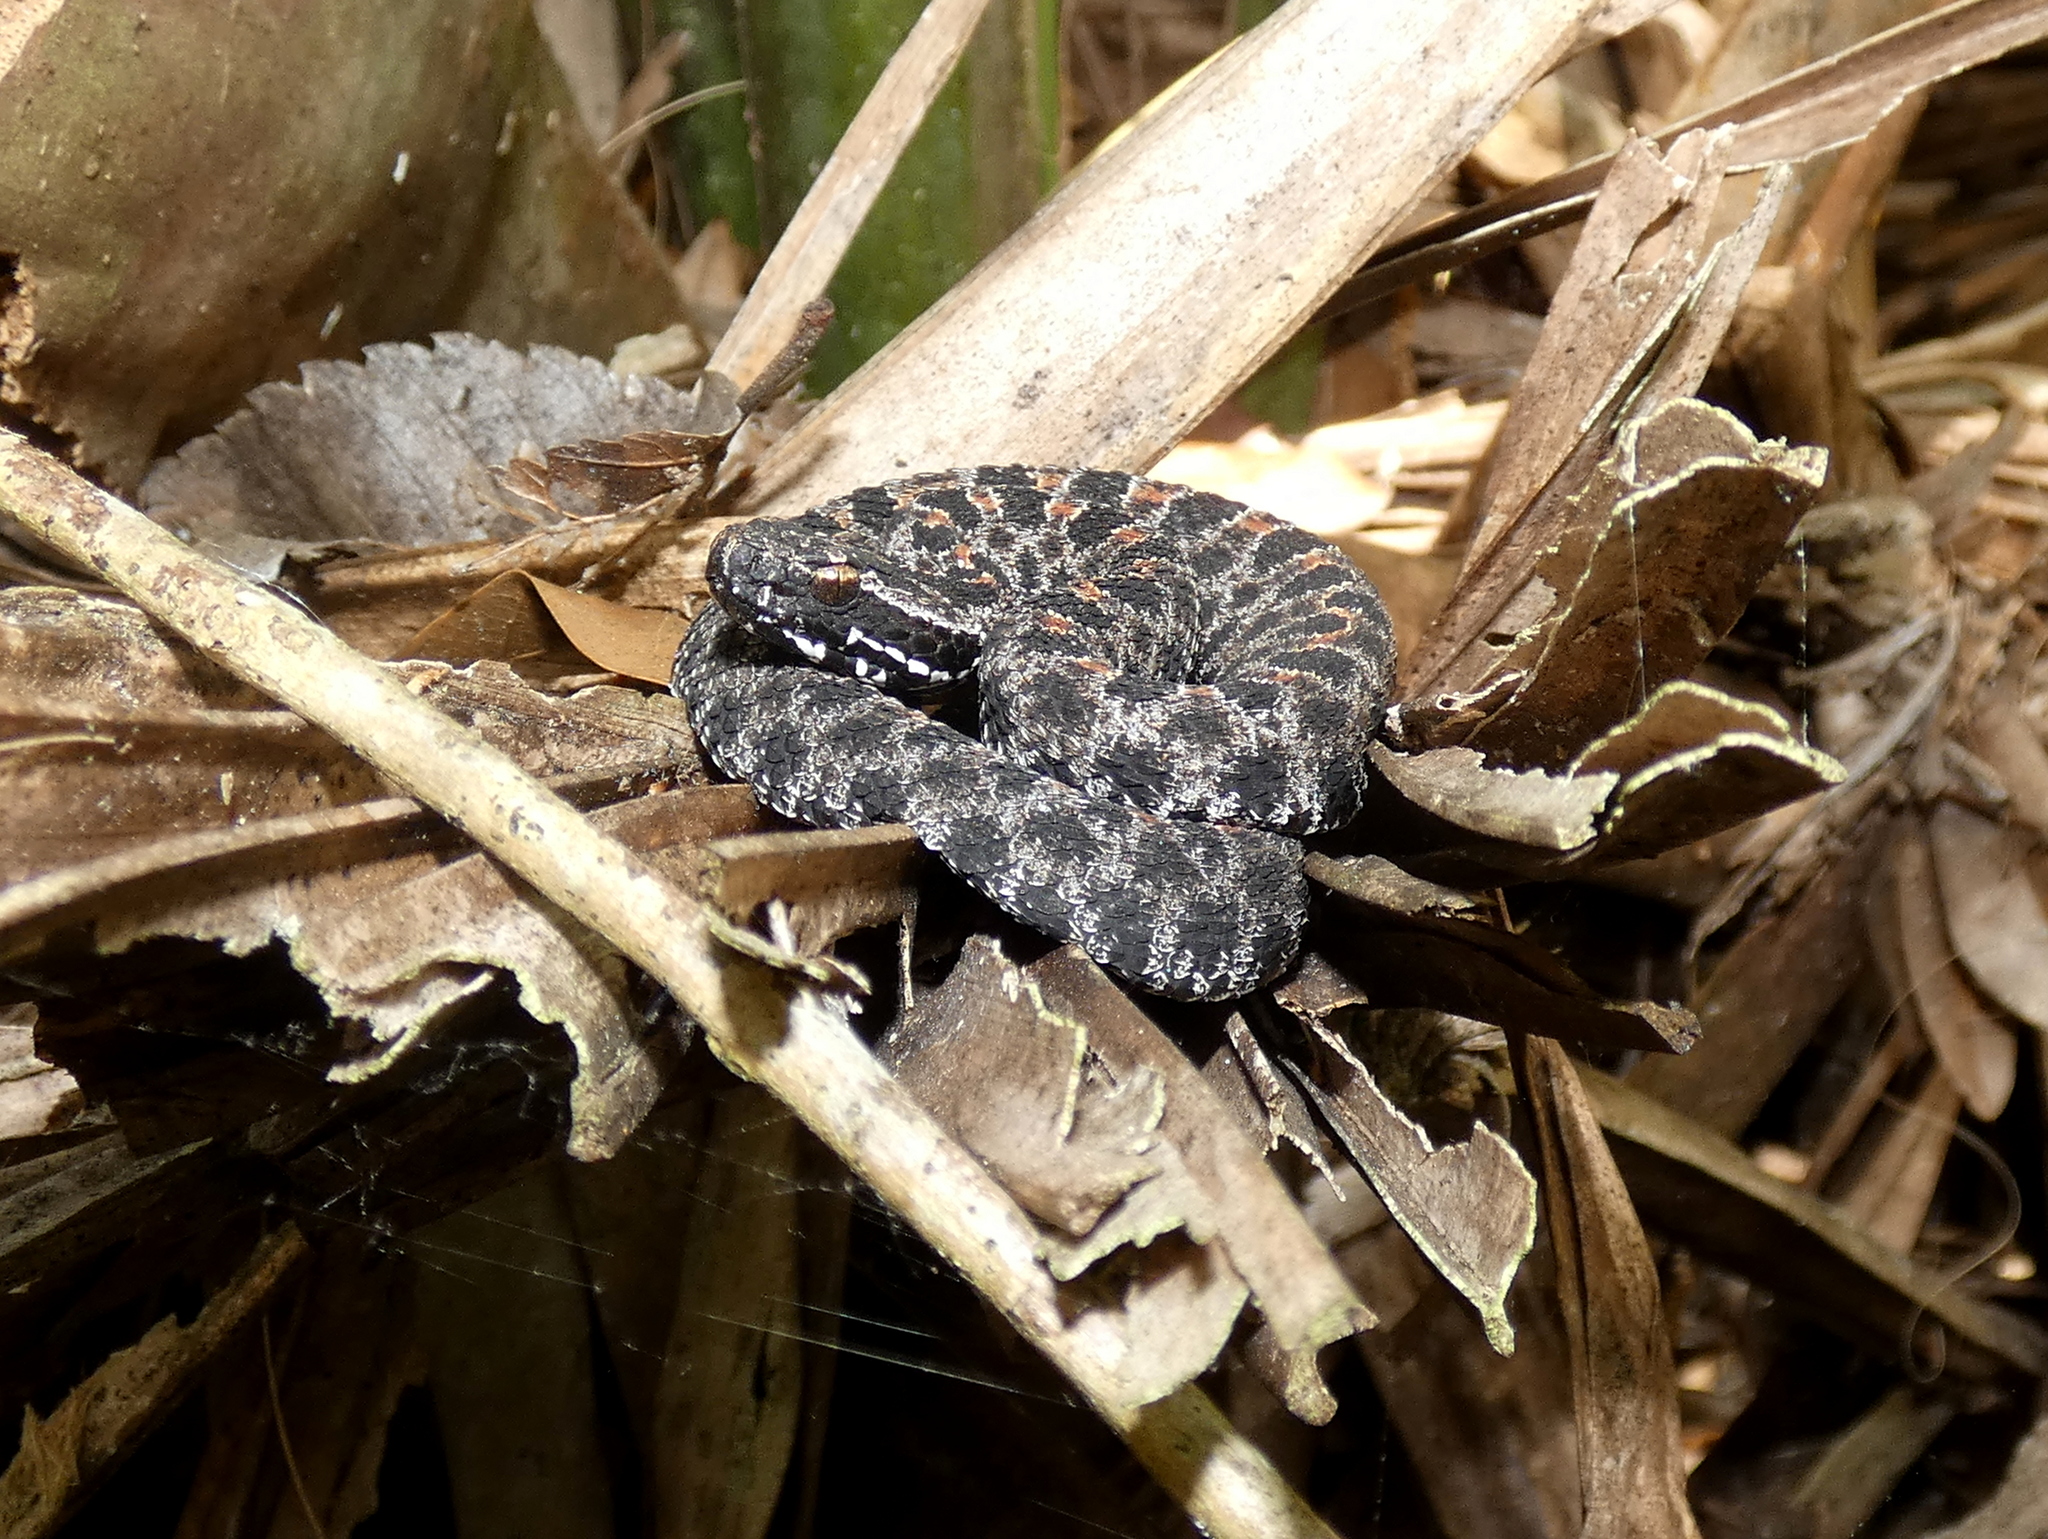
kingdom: Animalia
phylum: Chordata
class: Squamata
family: Viperidae
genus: Sistrurus
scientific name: Sistrurus miliarius
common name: Pygmy rattlesnake
